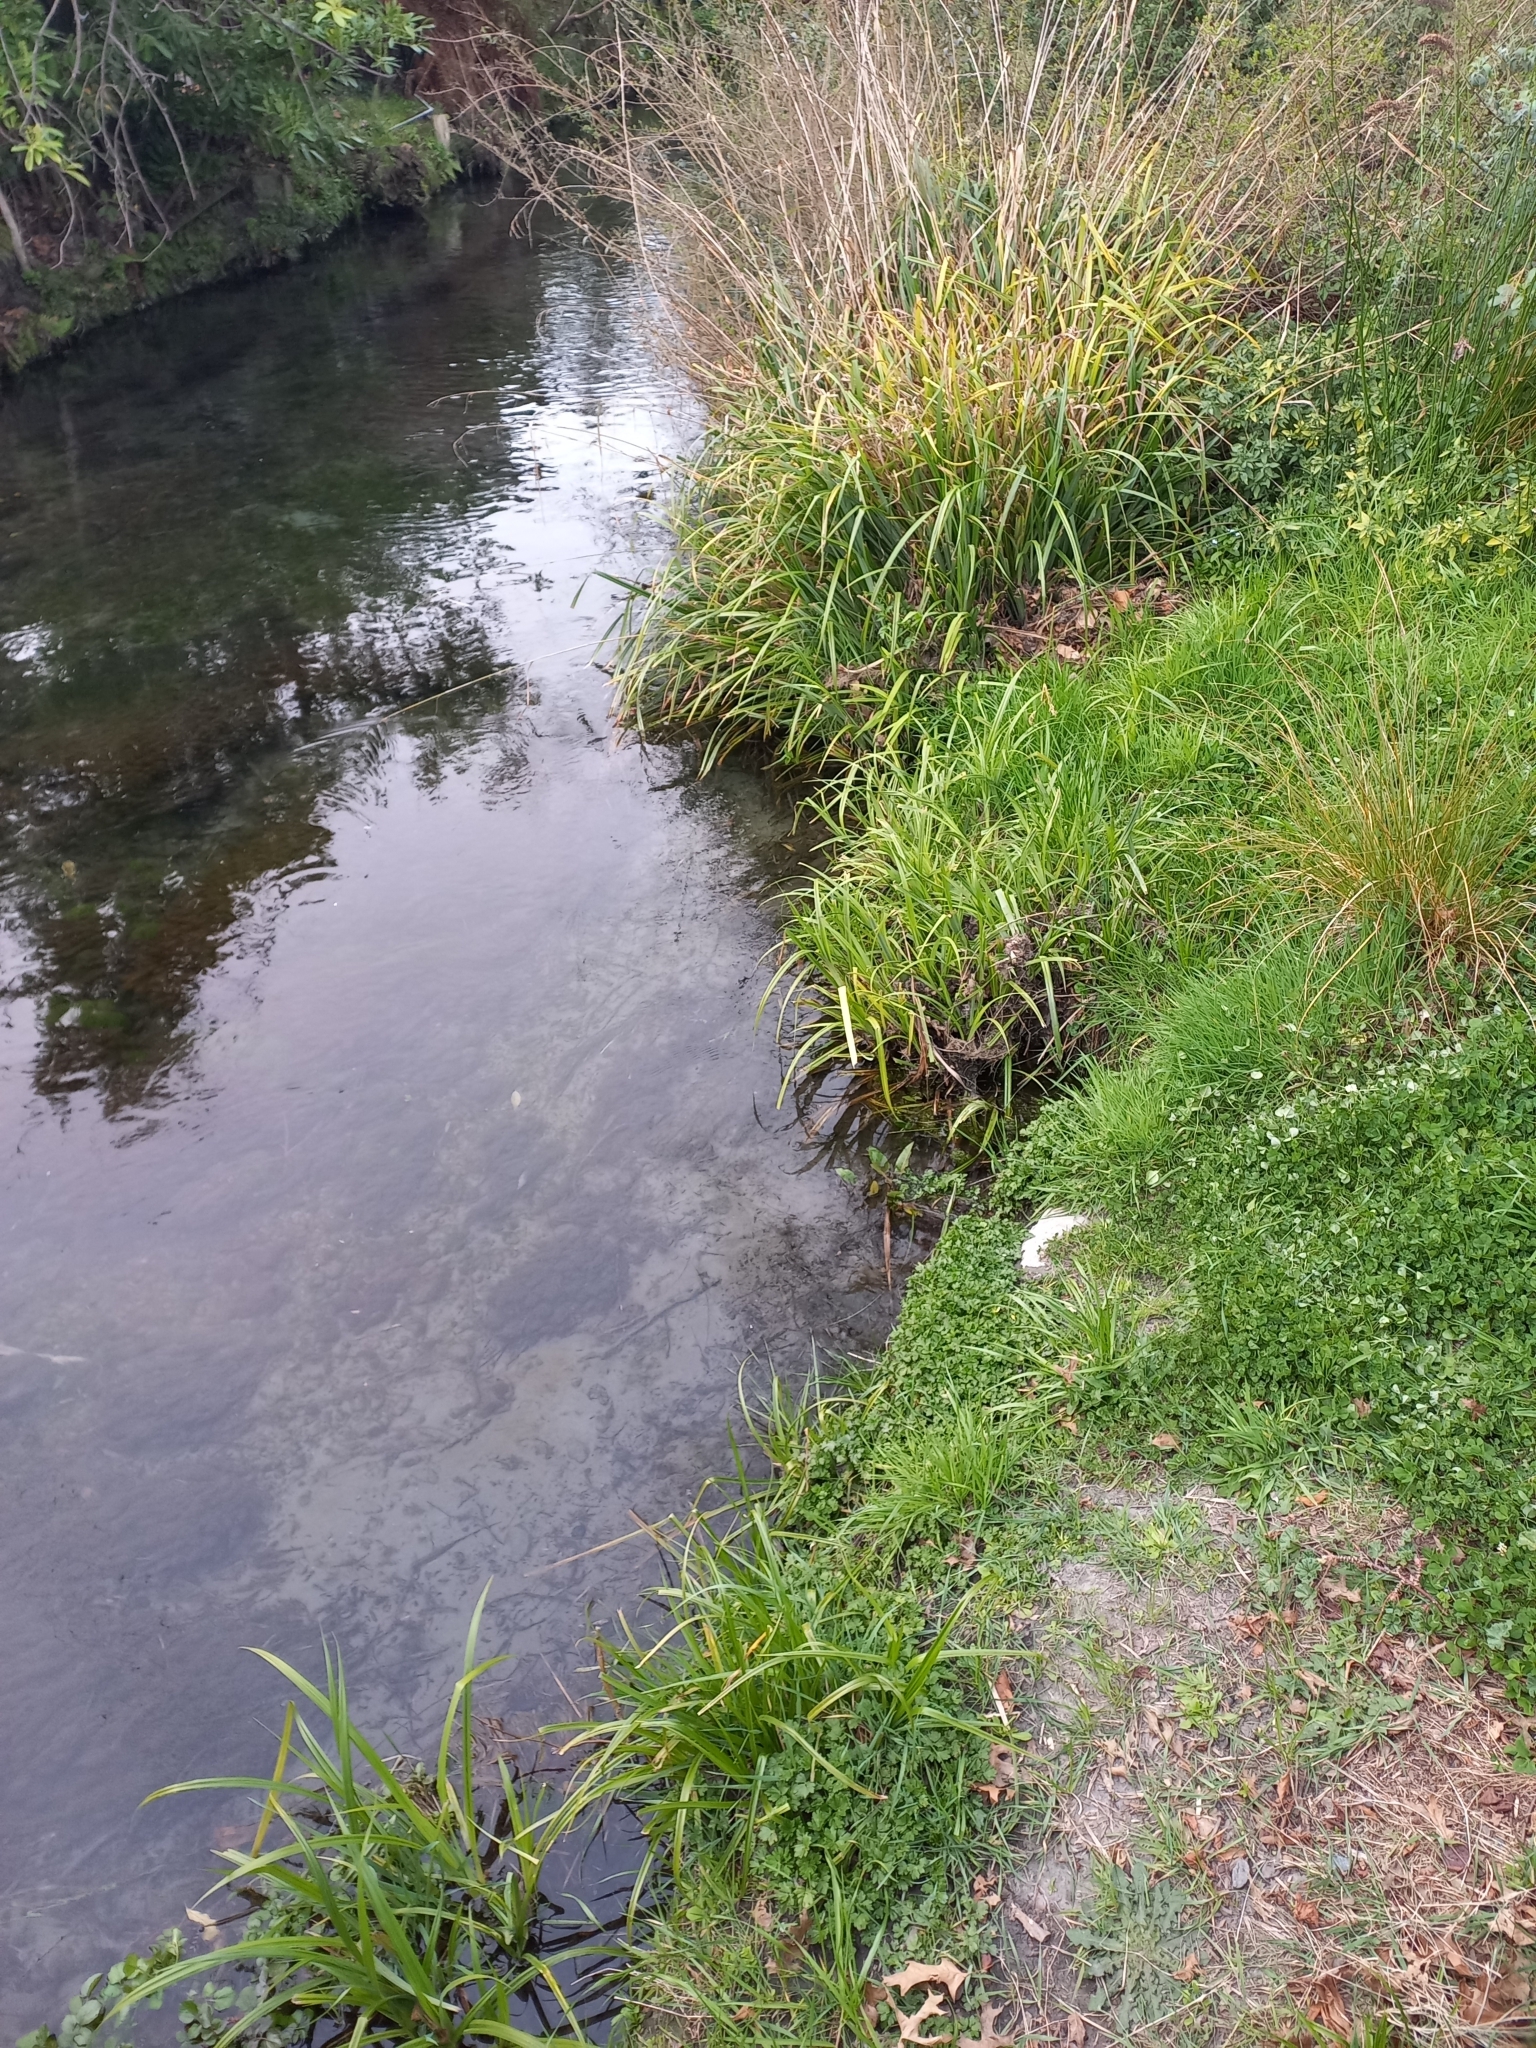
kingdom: Plantae
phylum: Tracheophyta
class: Liliopsida
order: Poales
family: Cyperaceae
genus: Carex
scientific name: Carex pendula
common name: Pendulous sedge
